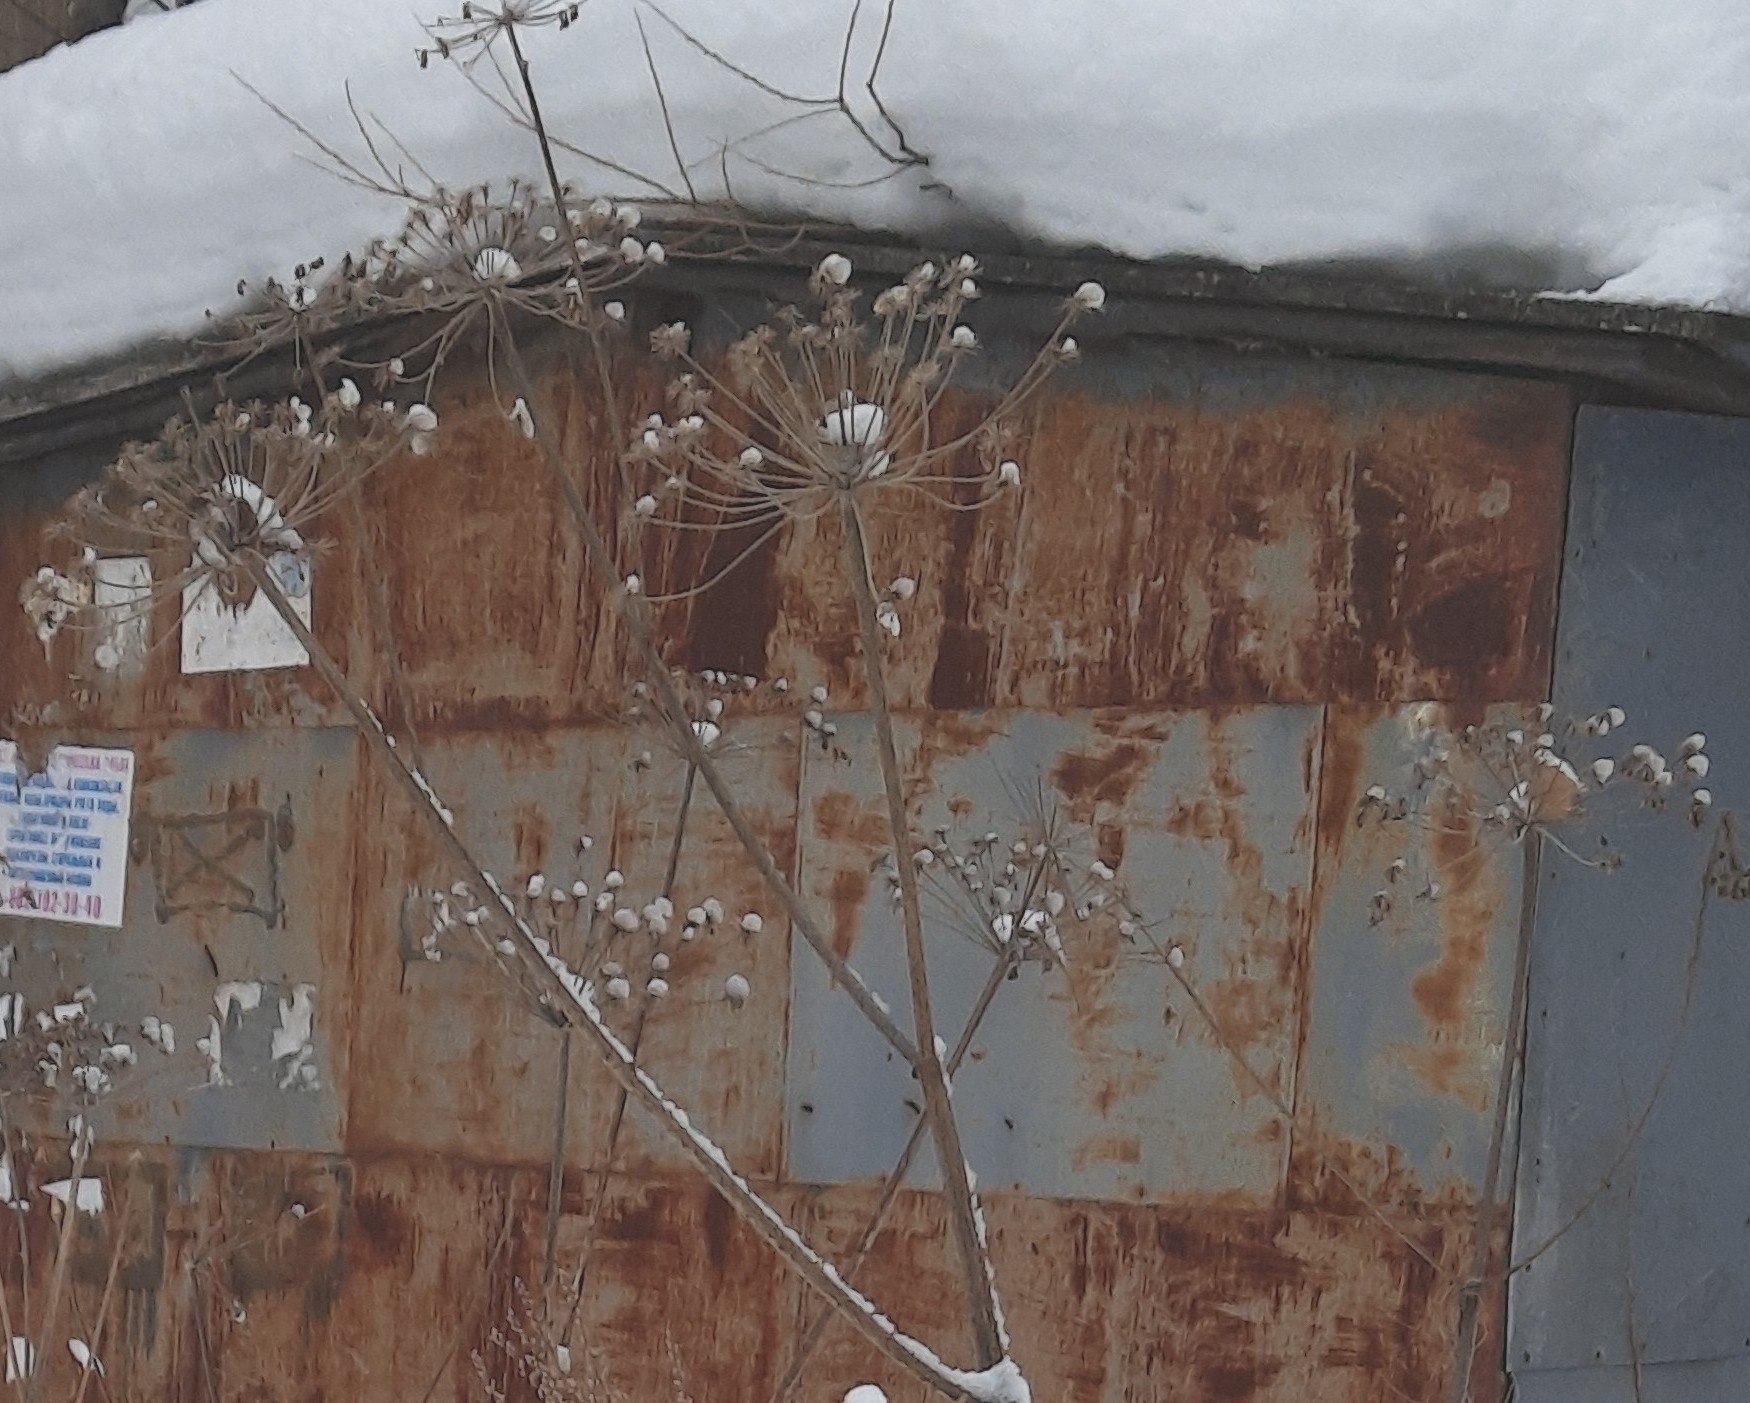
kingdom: Plantae
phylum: Tracheophyta
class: Magnoliopsida
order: Apiales
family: Apiaceae
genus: Heracleum
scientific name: Heracleum sosnowskyi
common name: Sosnowsky's hogweed
